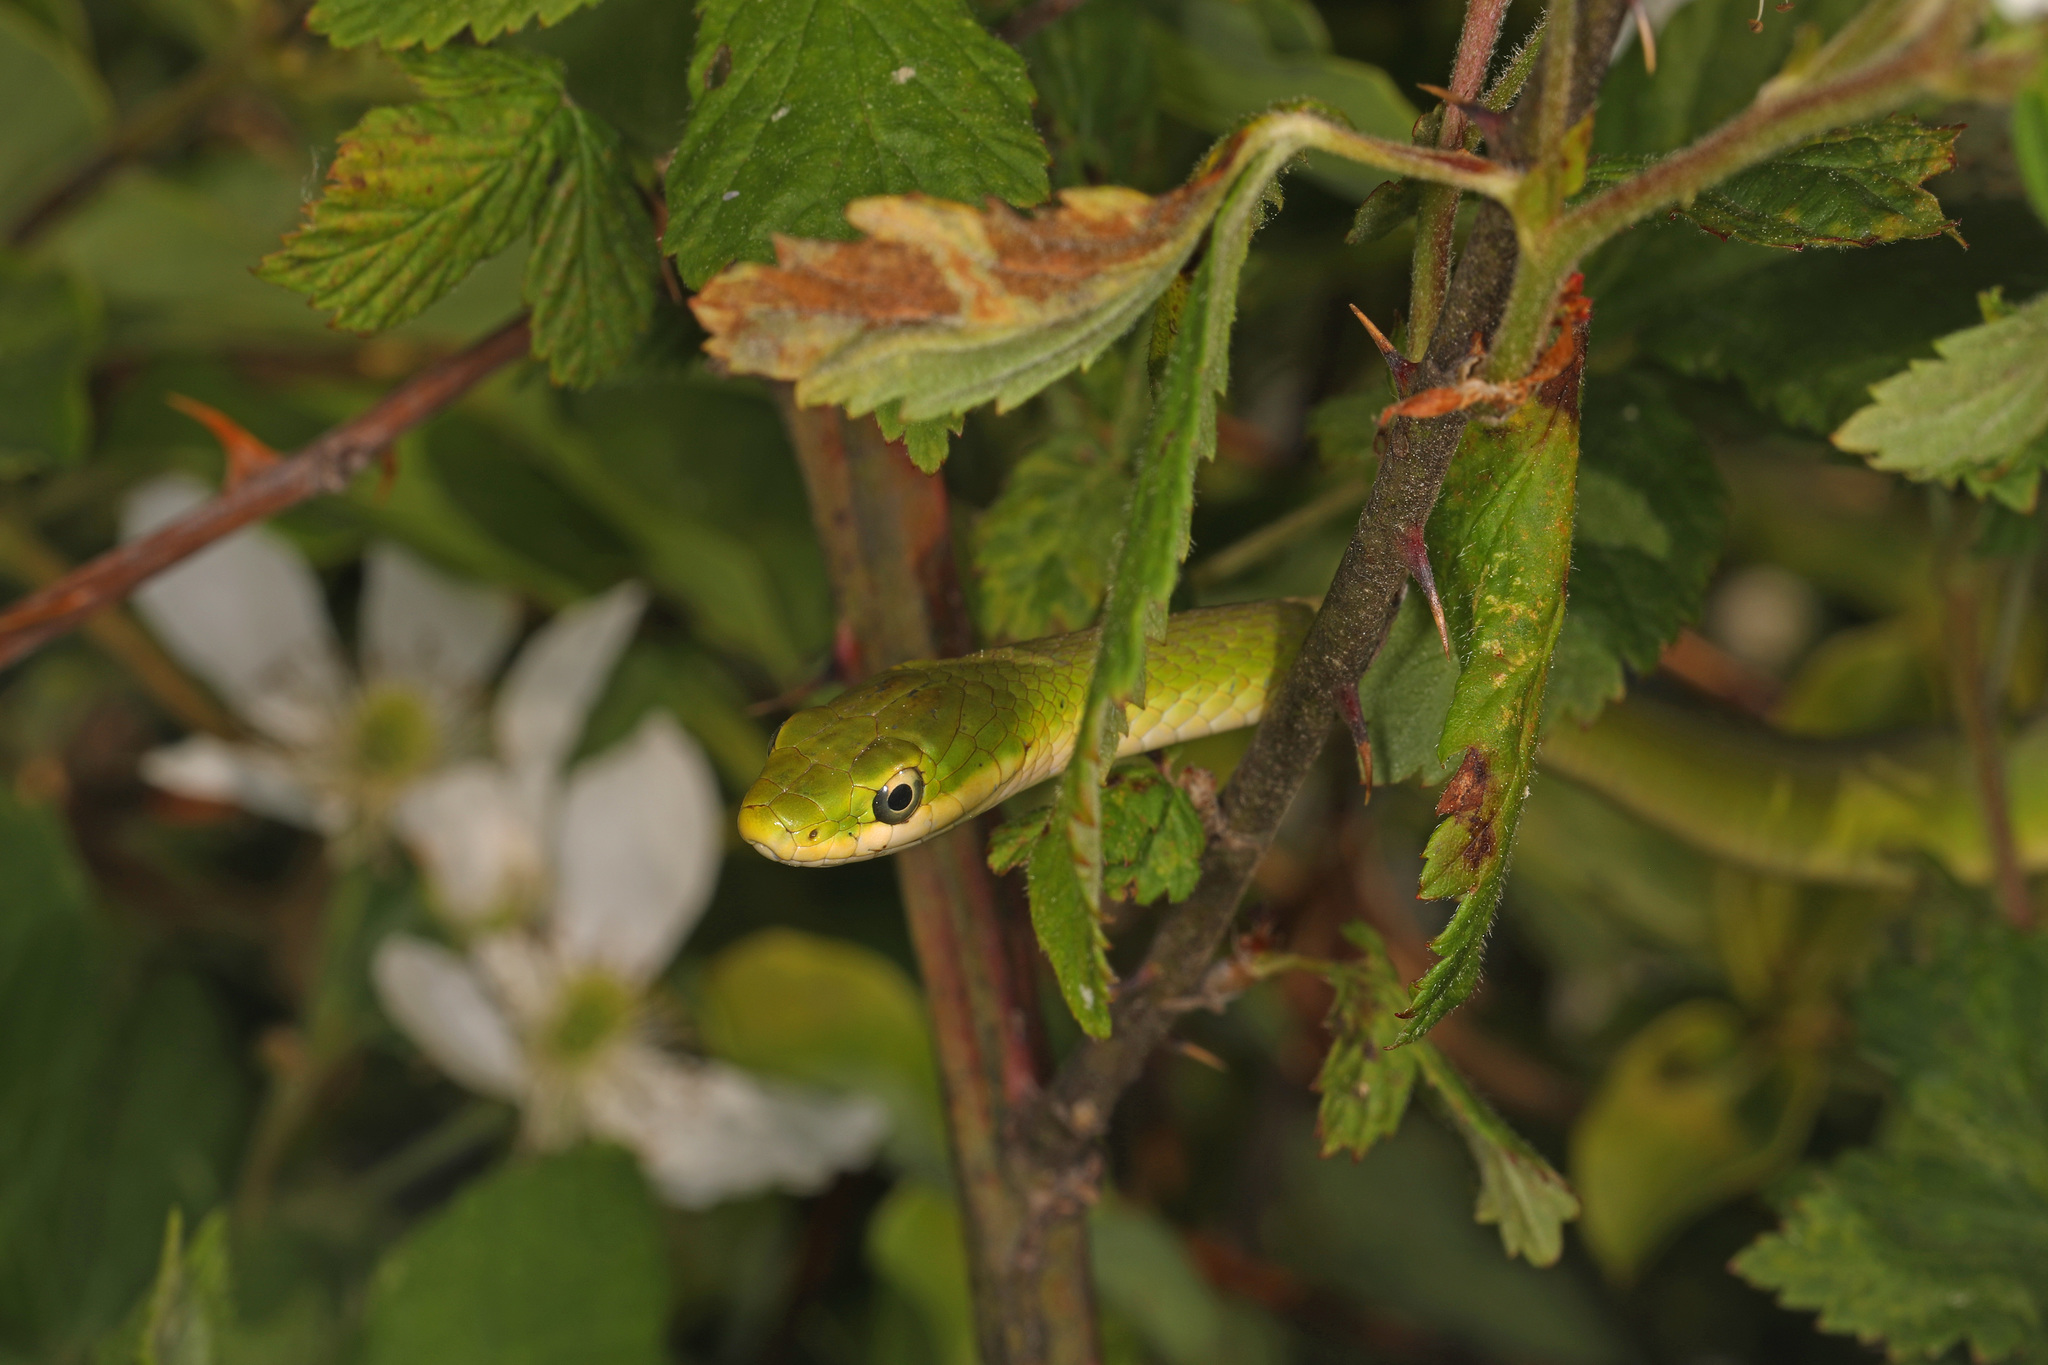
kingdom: Animalia
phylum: Chordata
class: Squamata
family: Colubridae
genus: Opheodrys
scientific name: Opheodrys aestivus
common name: Rough greensnake
